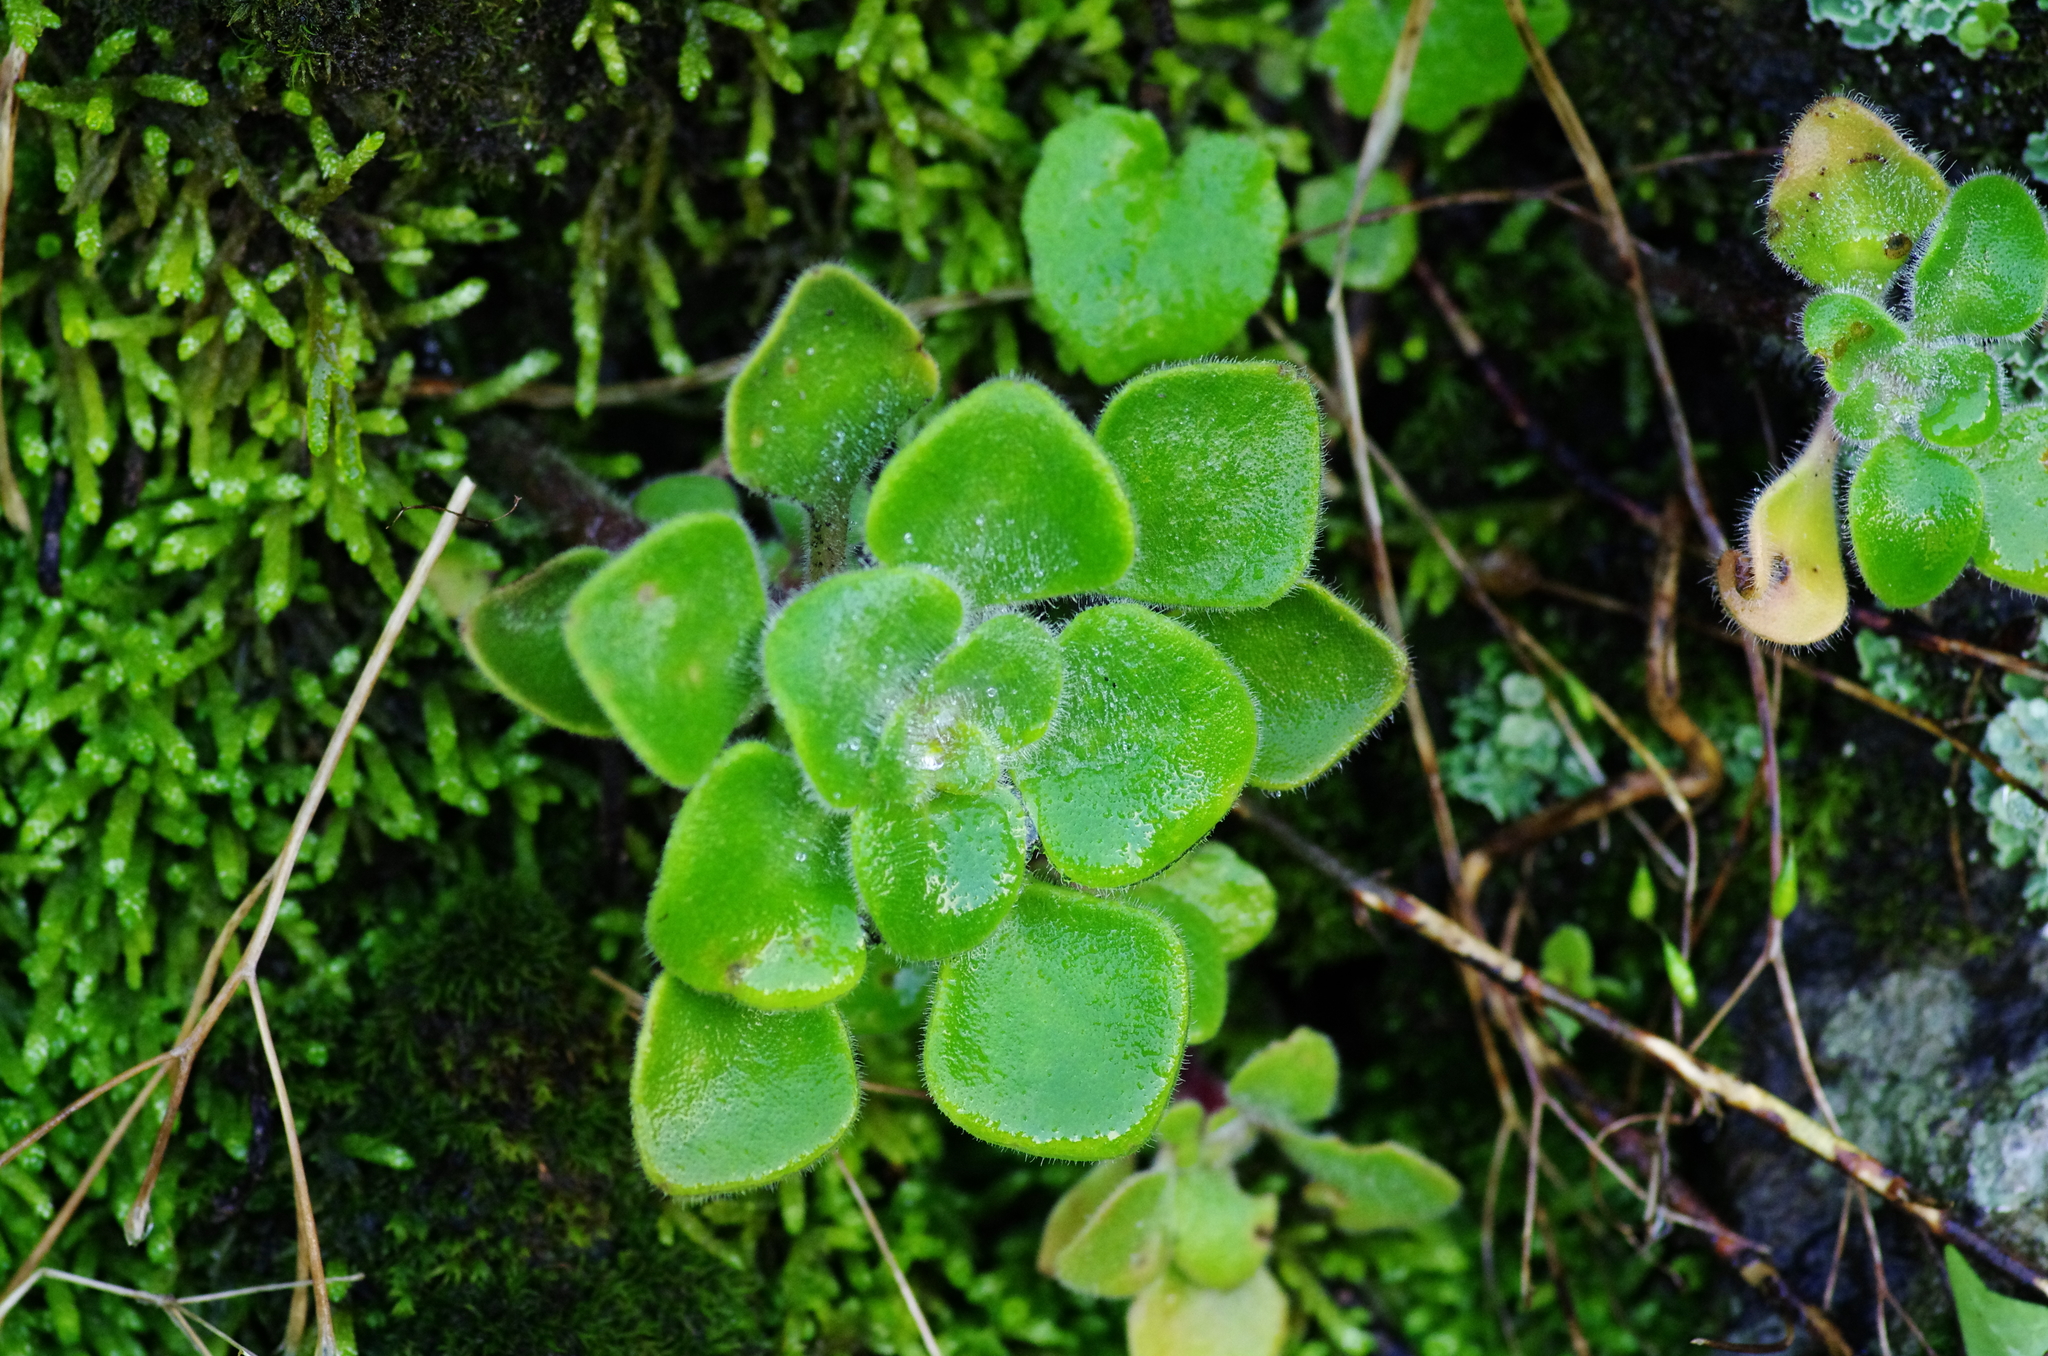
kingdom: Plantae
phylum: Tracheophyta
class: Magnoliopsida
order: Saxifragales
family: Crassulaceae
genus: Aichryson
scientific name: Aichryson laxum
